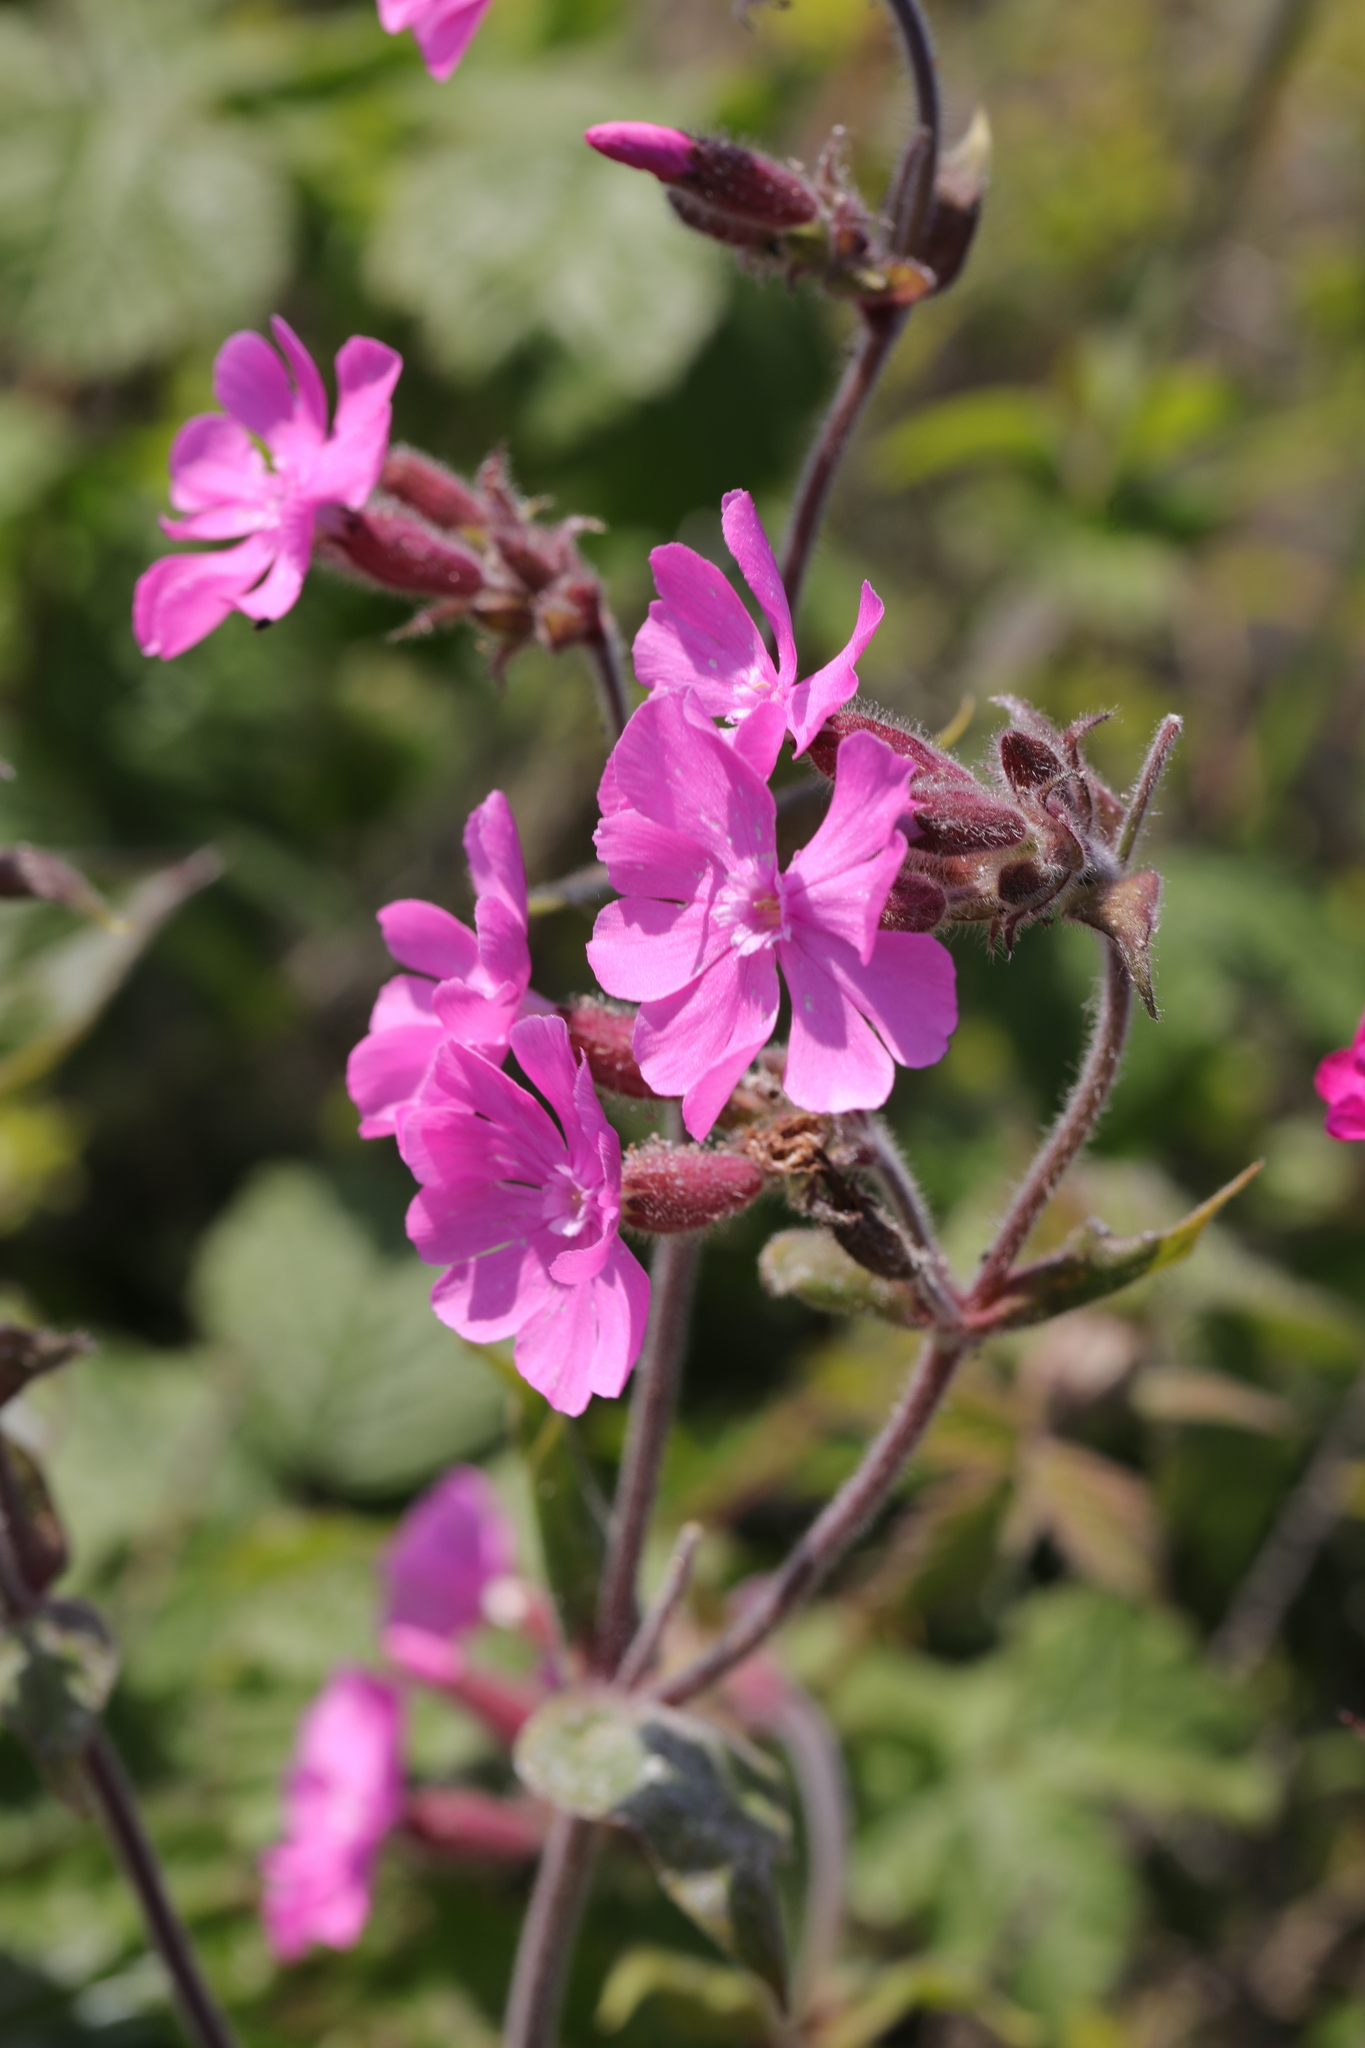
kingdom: Plantae
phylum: Tracheophyta
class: Magnoliopsida
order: Caryophyllales
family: Caryophyllaceae
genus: Silene
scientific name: Silene dioica
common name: Red campion
